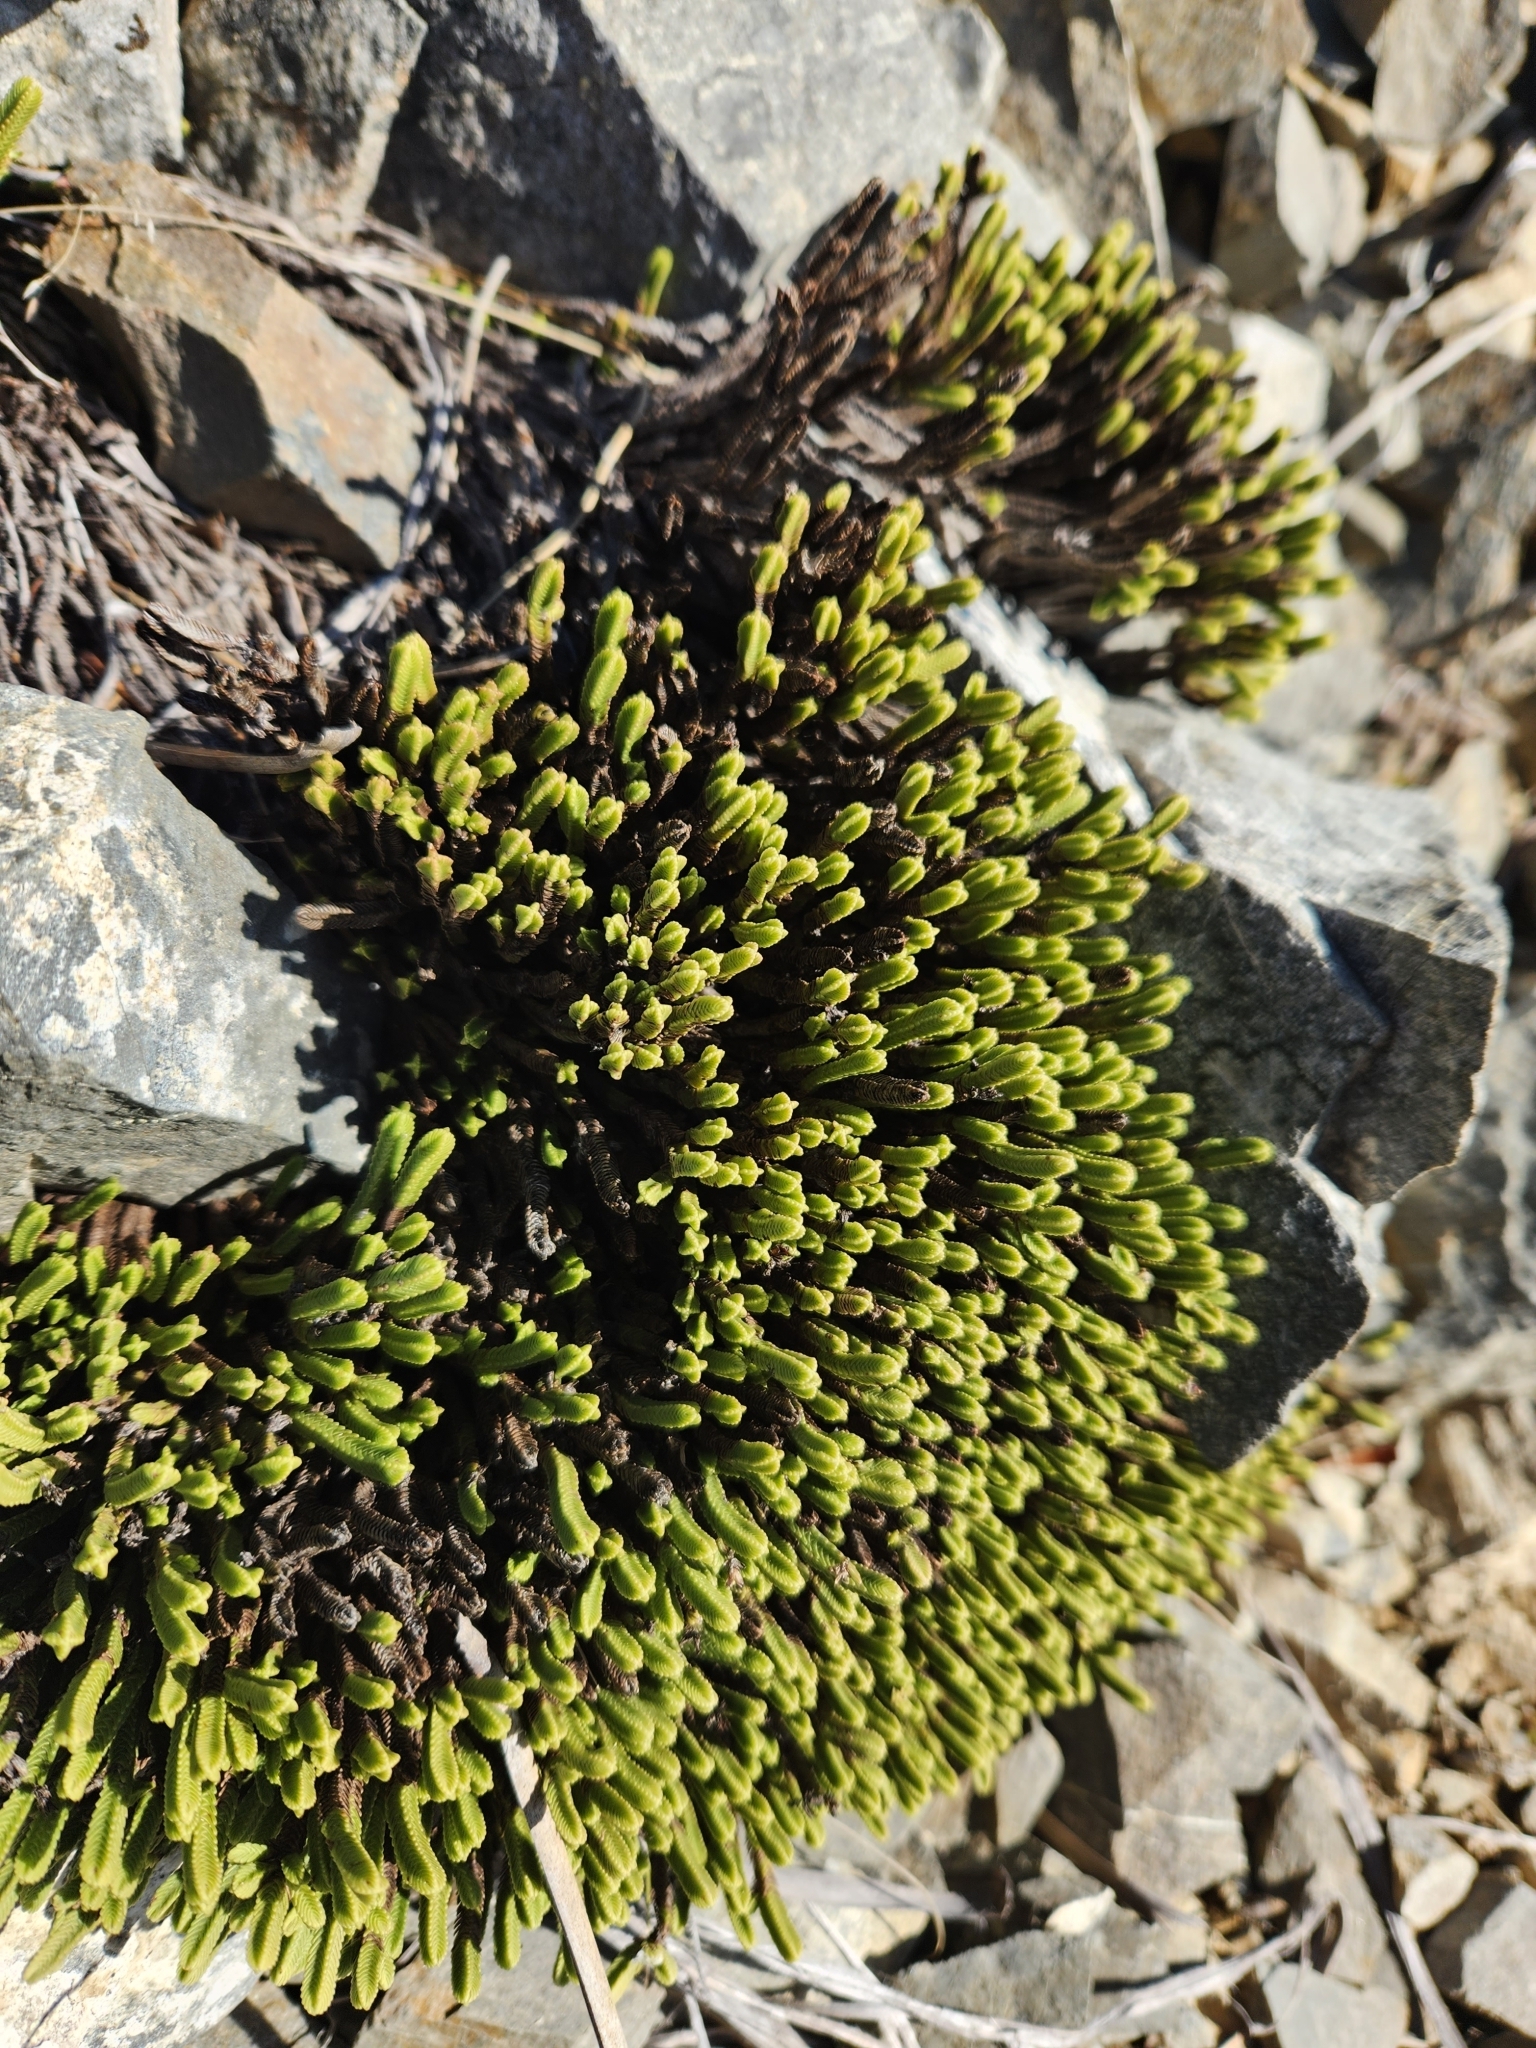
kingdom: Plantae
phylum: Tracheophyta
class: Magnoliopsida
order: Lamiales
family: Plantaginaceae
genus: Veronica
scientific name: Veronica tetrasticha
